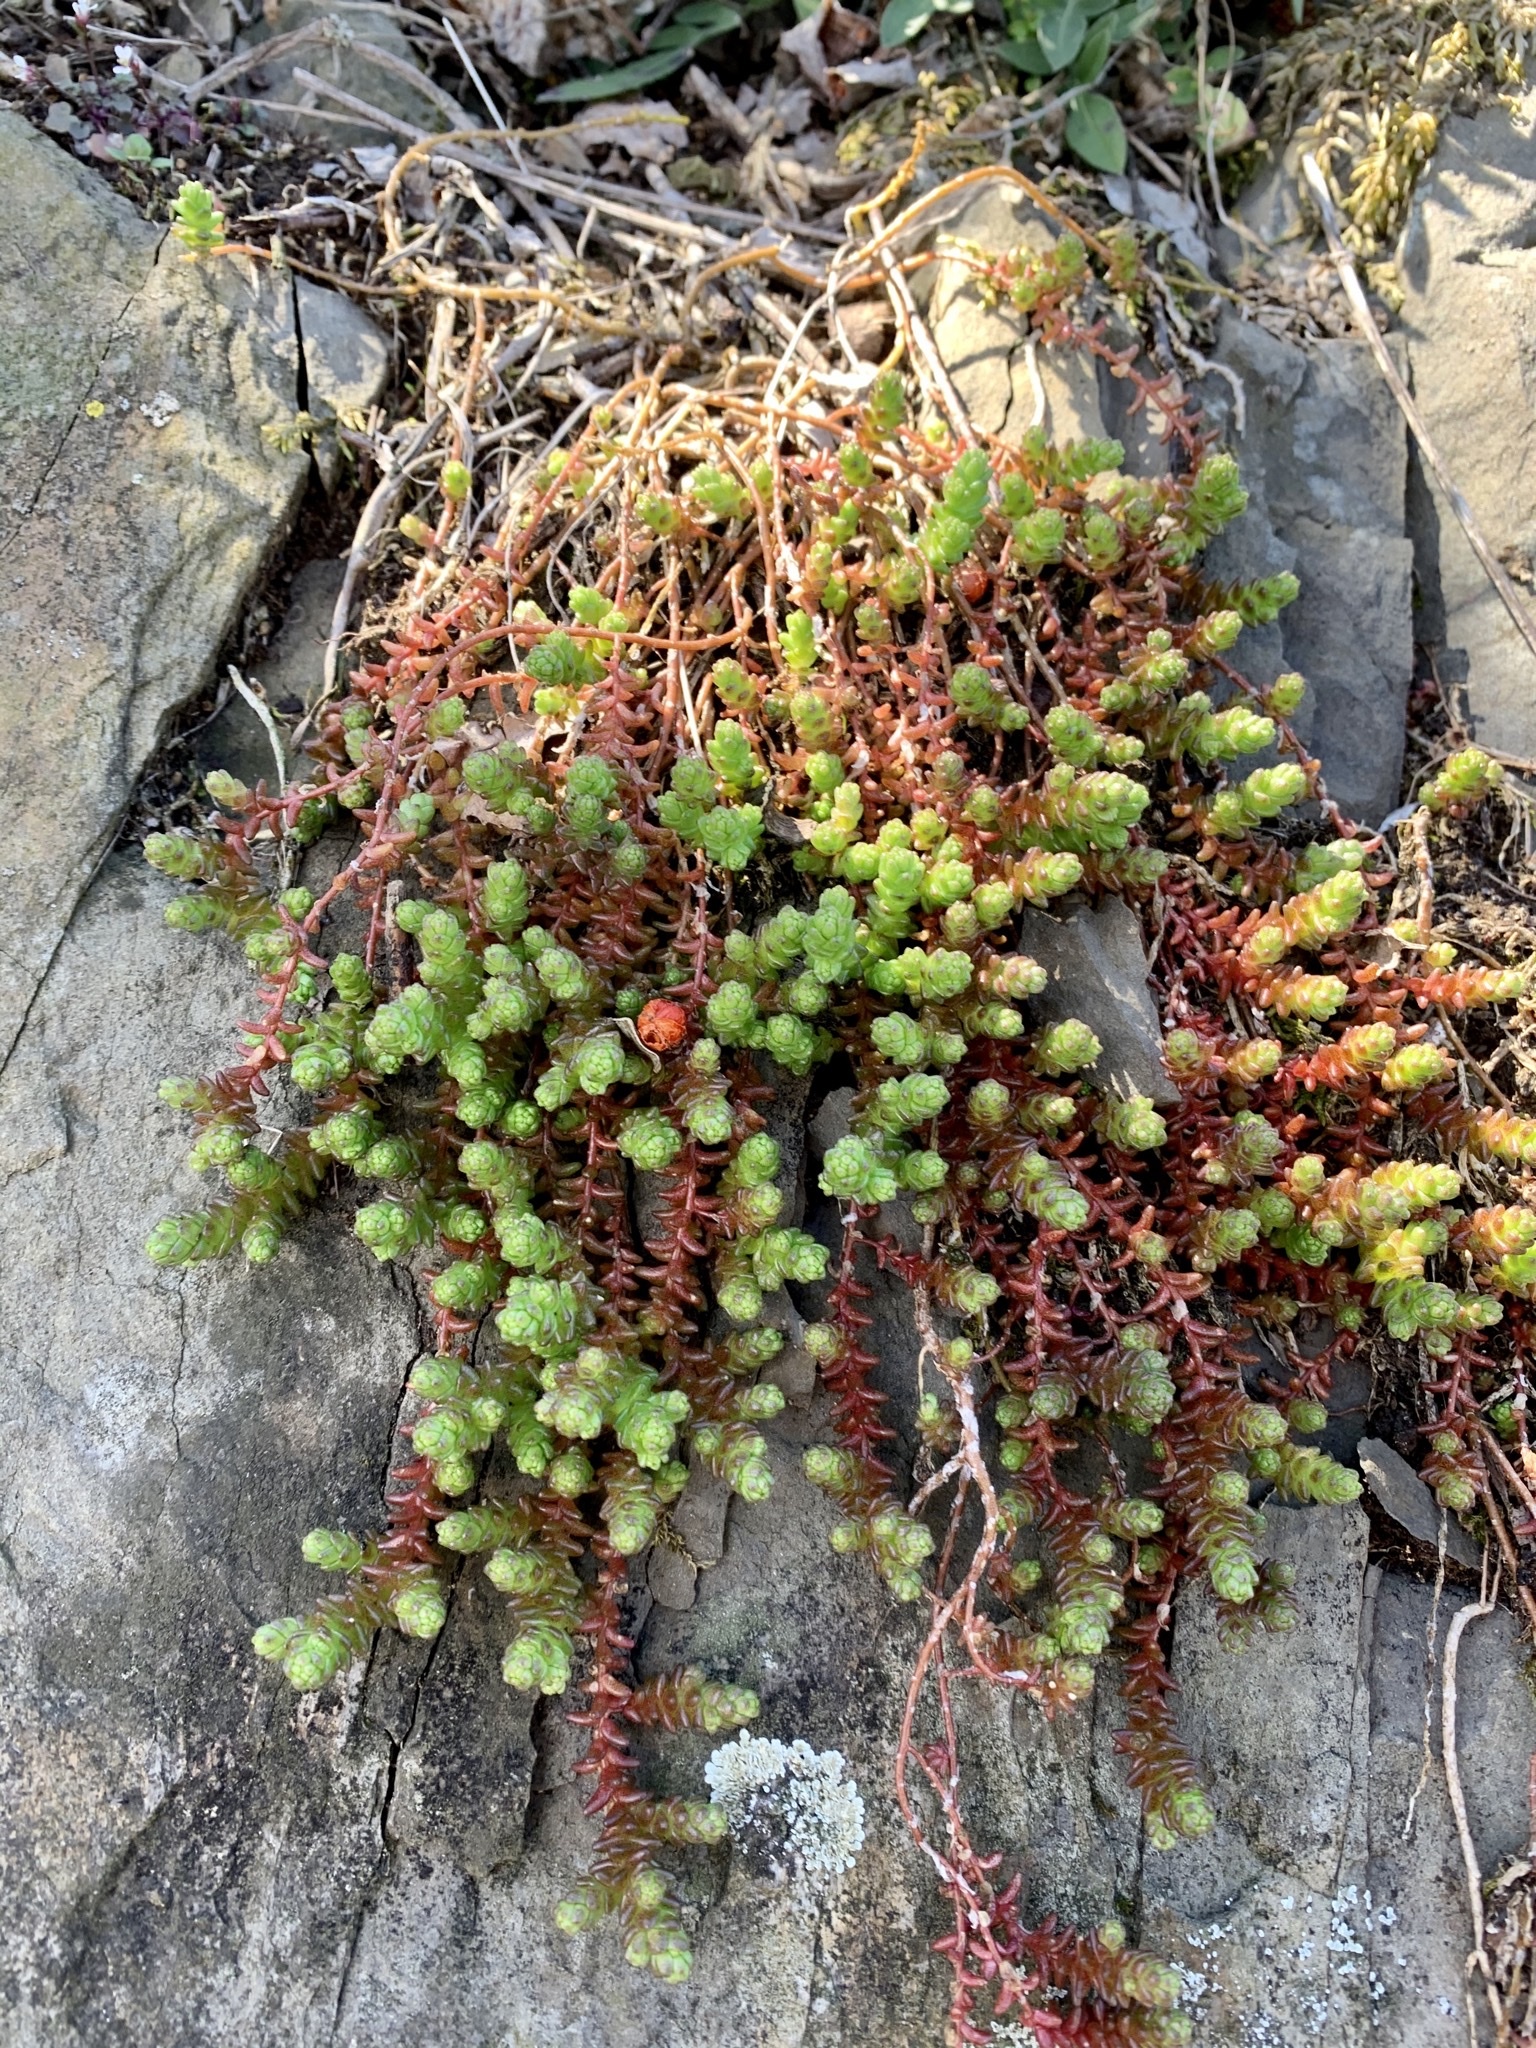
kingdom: Plantae
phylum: Tracheophyta
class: Magnoliopsida
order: Saxifragales
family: Crassulaceae
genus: Sedum
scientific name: Sedum acre
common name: Biting stonecrop
